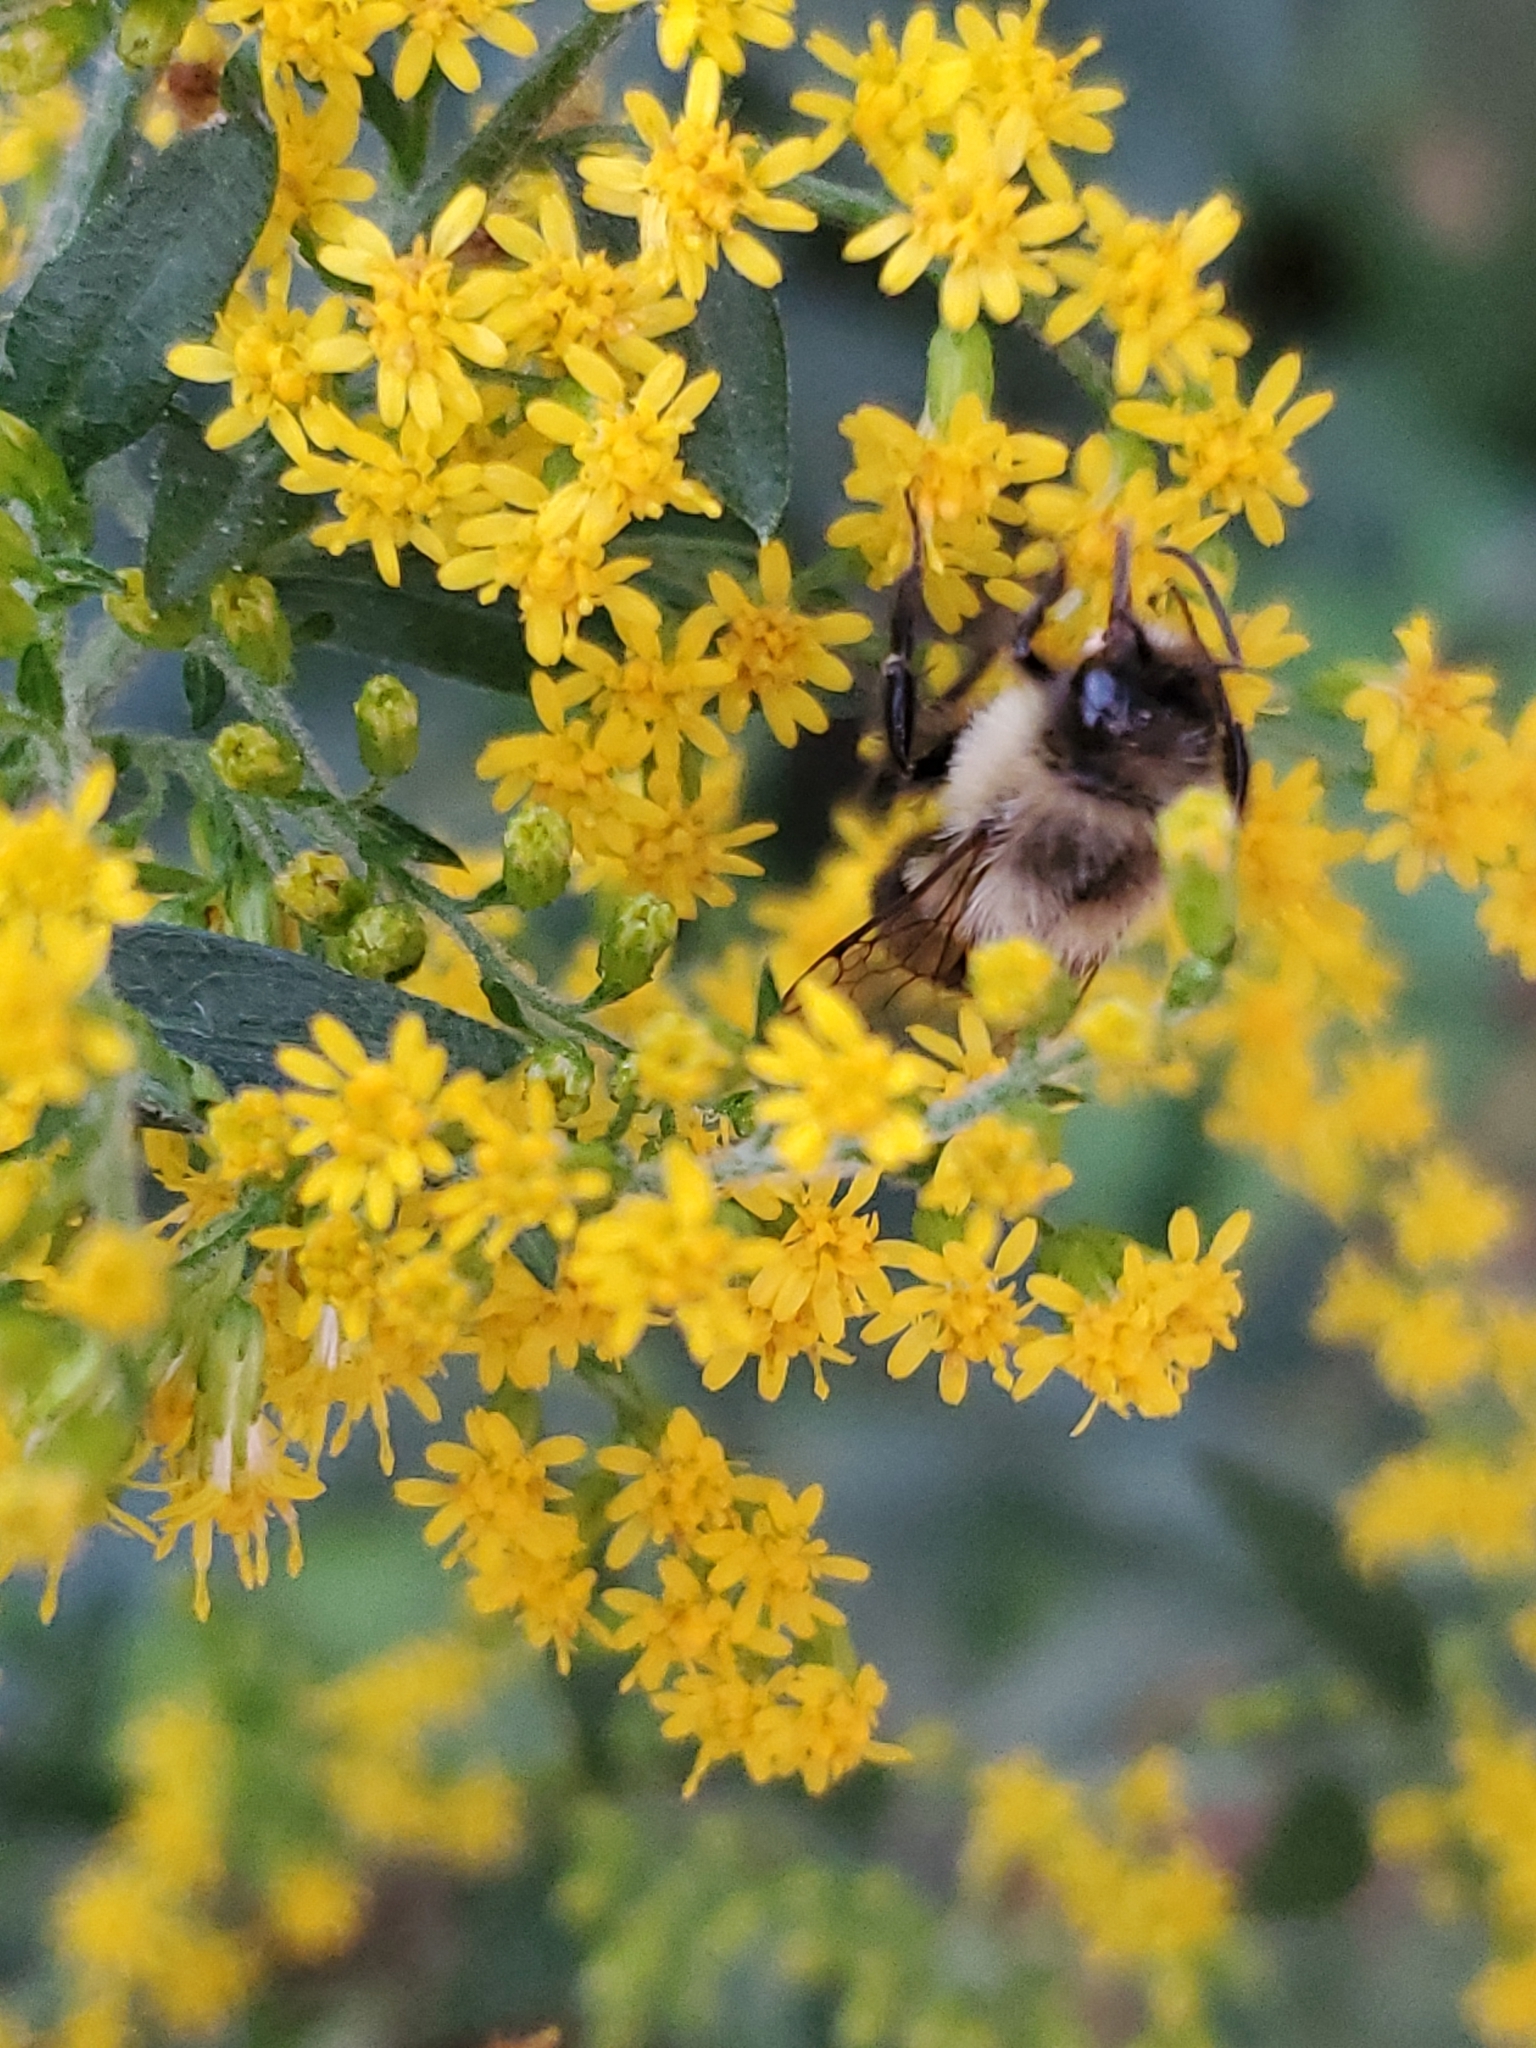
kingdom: Animalia
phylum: Arthropoda
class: Insecta
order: Hymenoptera
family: Apidae
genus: Bombus
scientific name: Bombus impatiens
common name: Common eastern bumble bee
